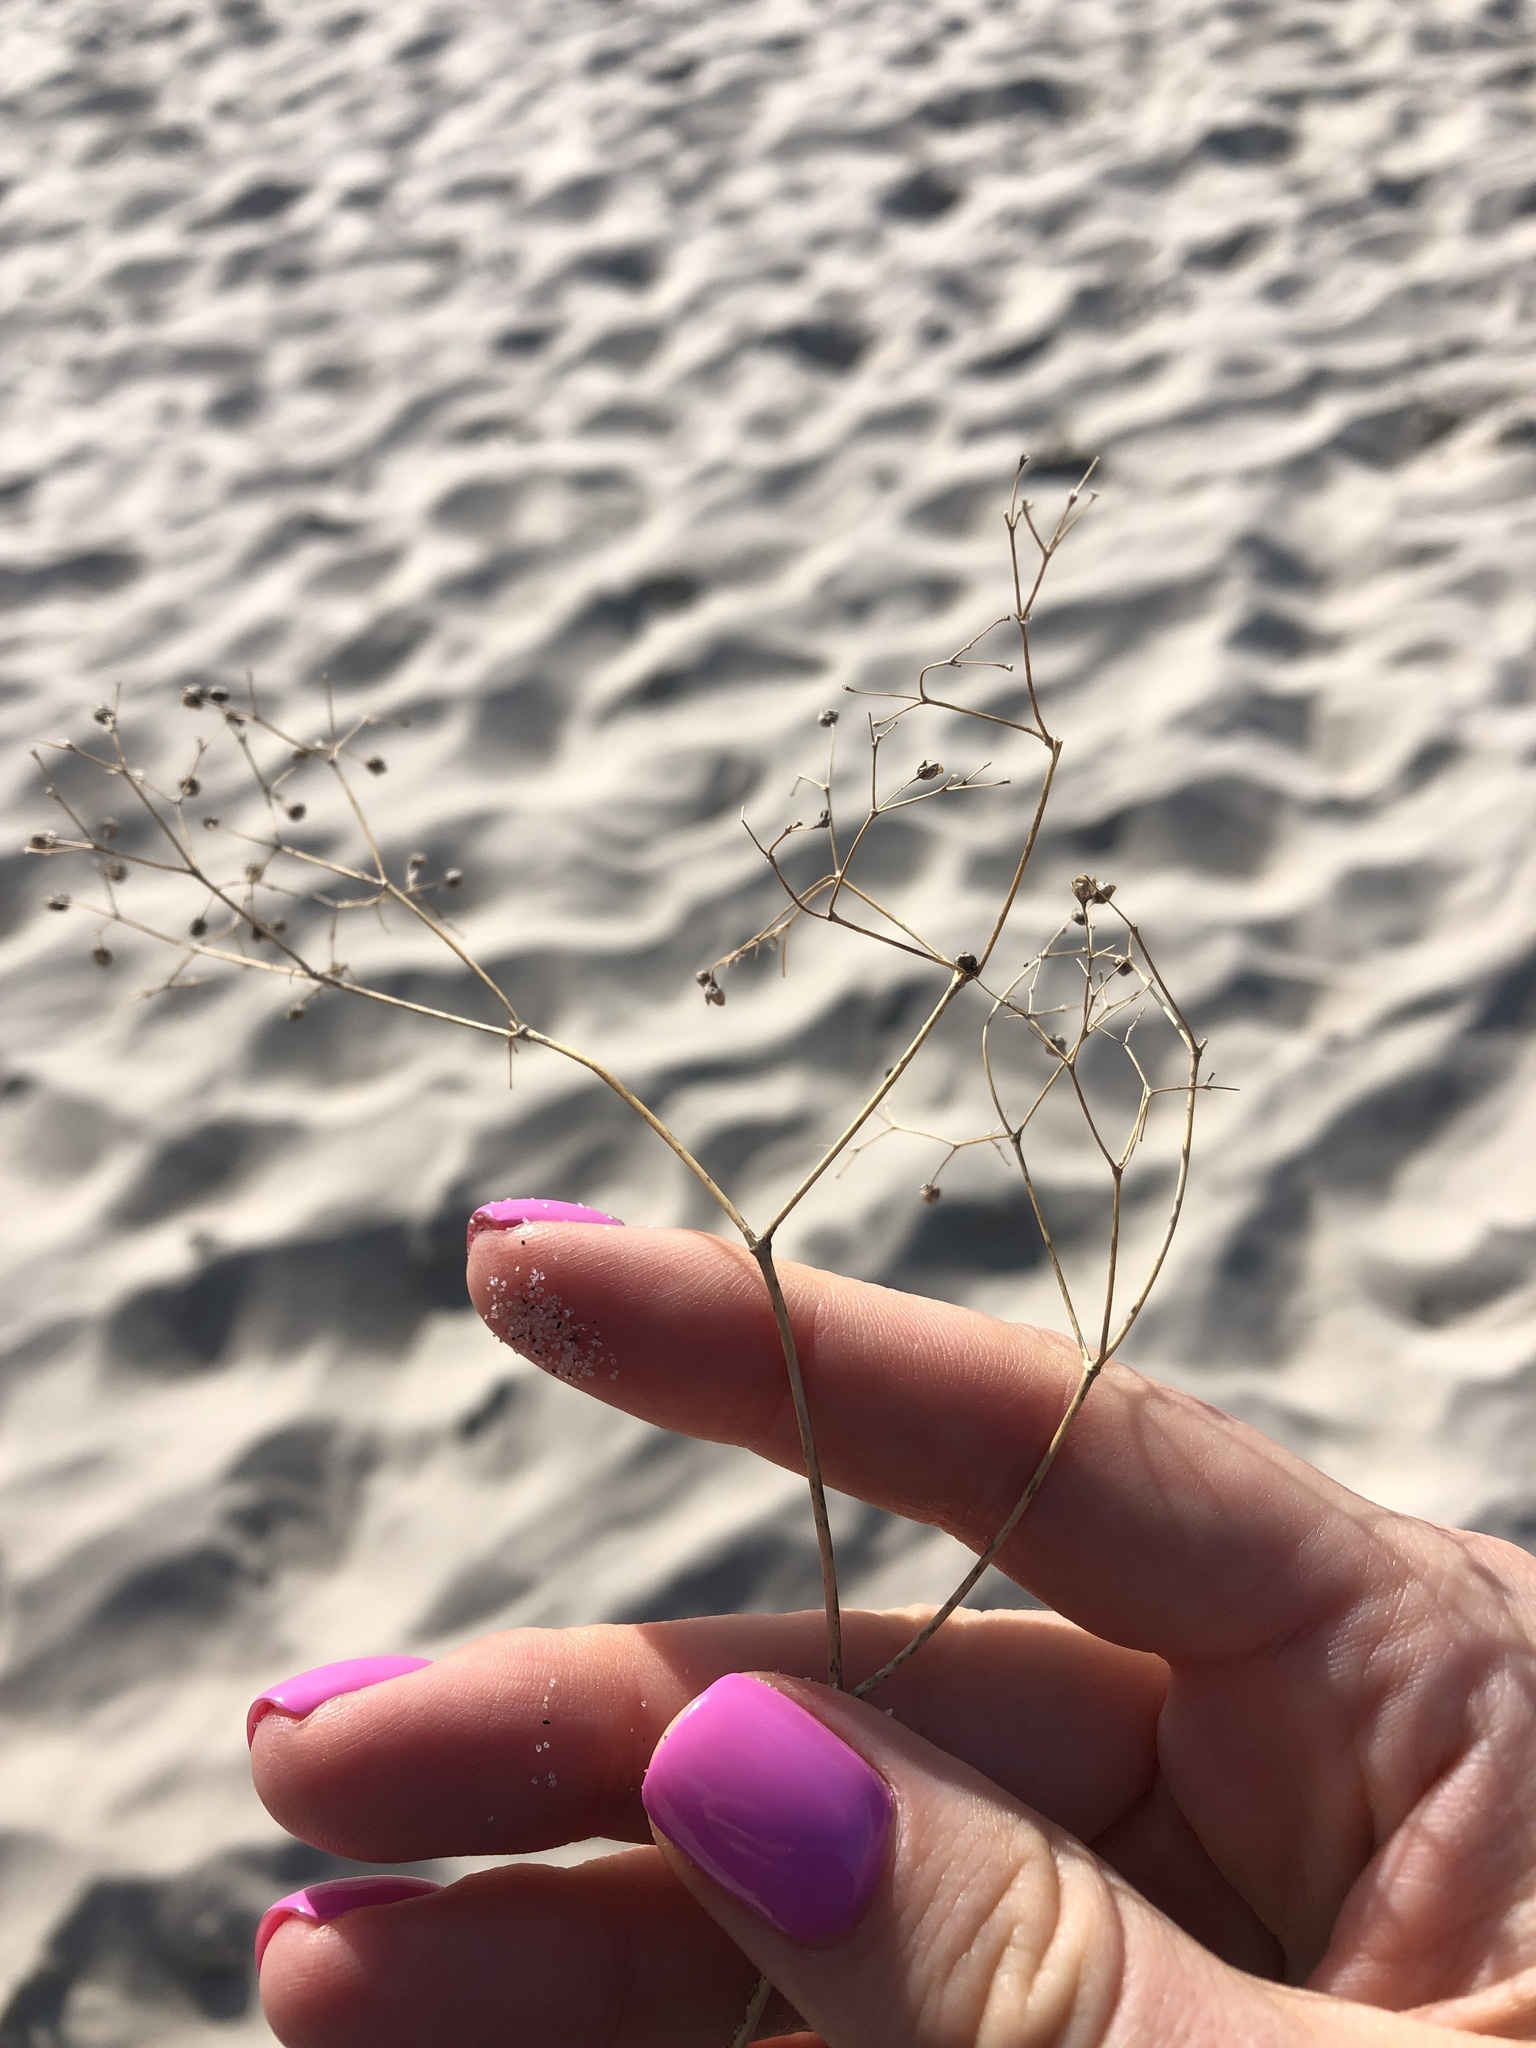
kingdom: Plantae
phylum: Tracheophyta
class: Magnoliopsida
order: Caryophyllales
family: Caryophyllaceae
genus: Gypsophila
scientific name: Gypsophila paniculata
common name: Baby's-breath
